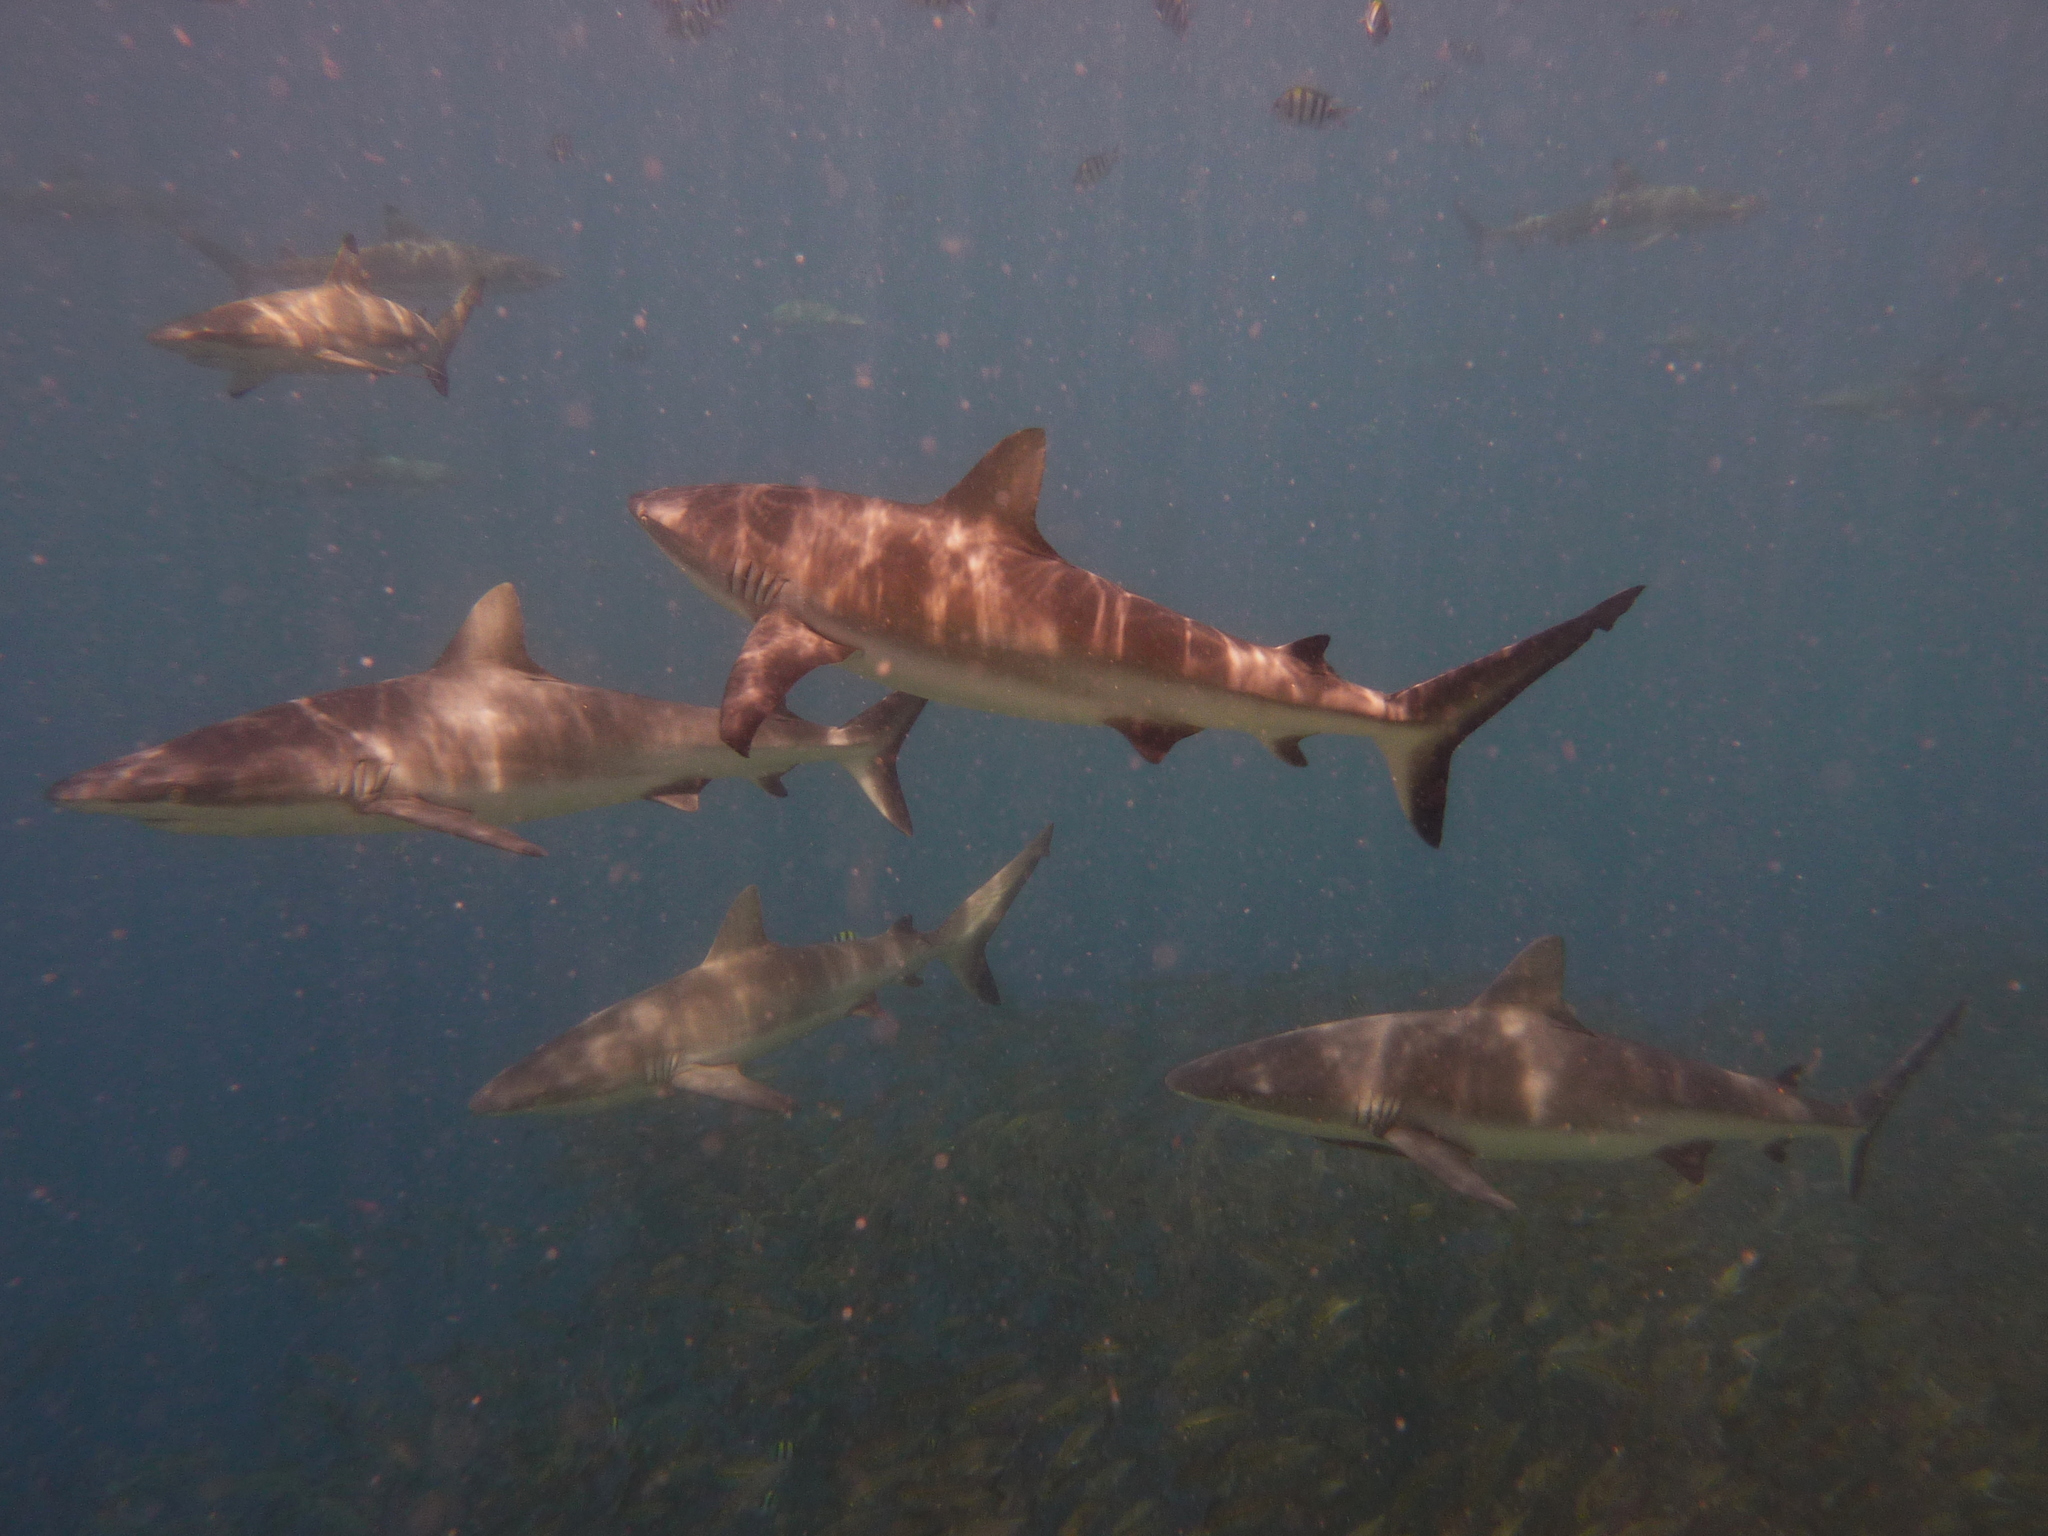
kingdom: Animalia
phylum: Chordata
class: Elasmobranchii
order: Carcharhiniformes
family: Carcharhinidae
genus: Carcharhinus
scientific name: Carcharhinus amblyrhynchos
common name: Grey reef shark
